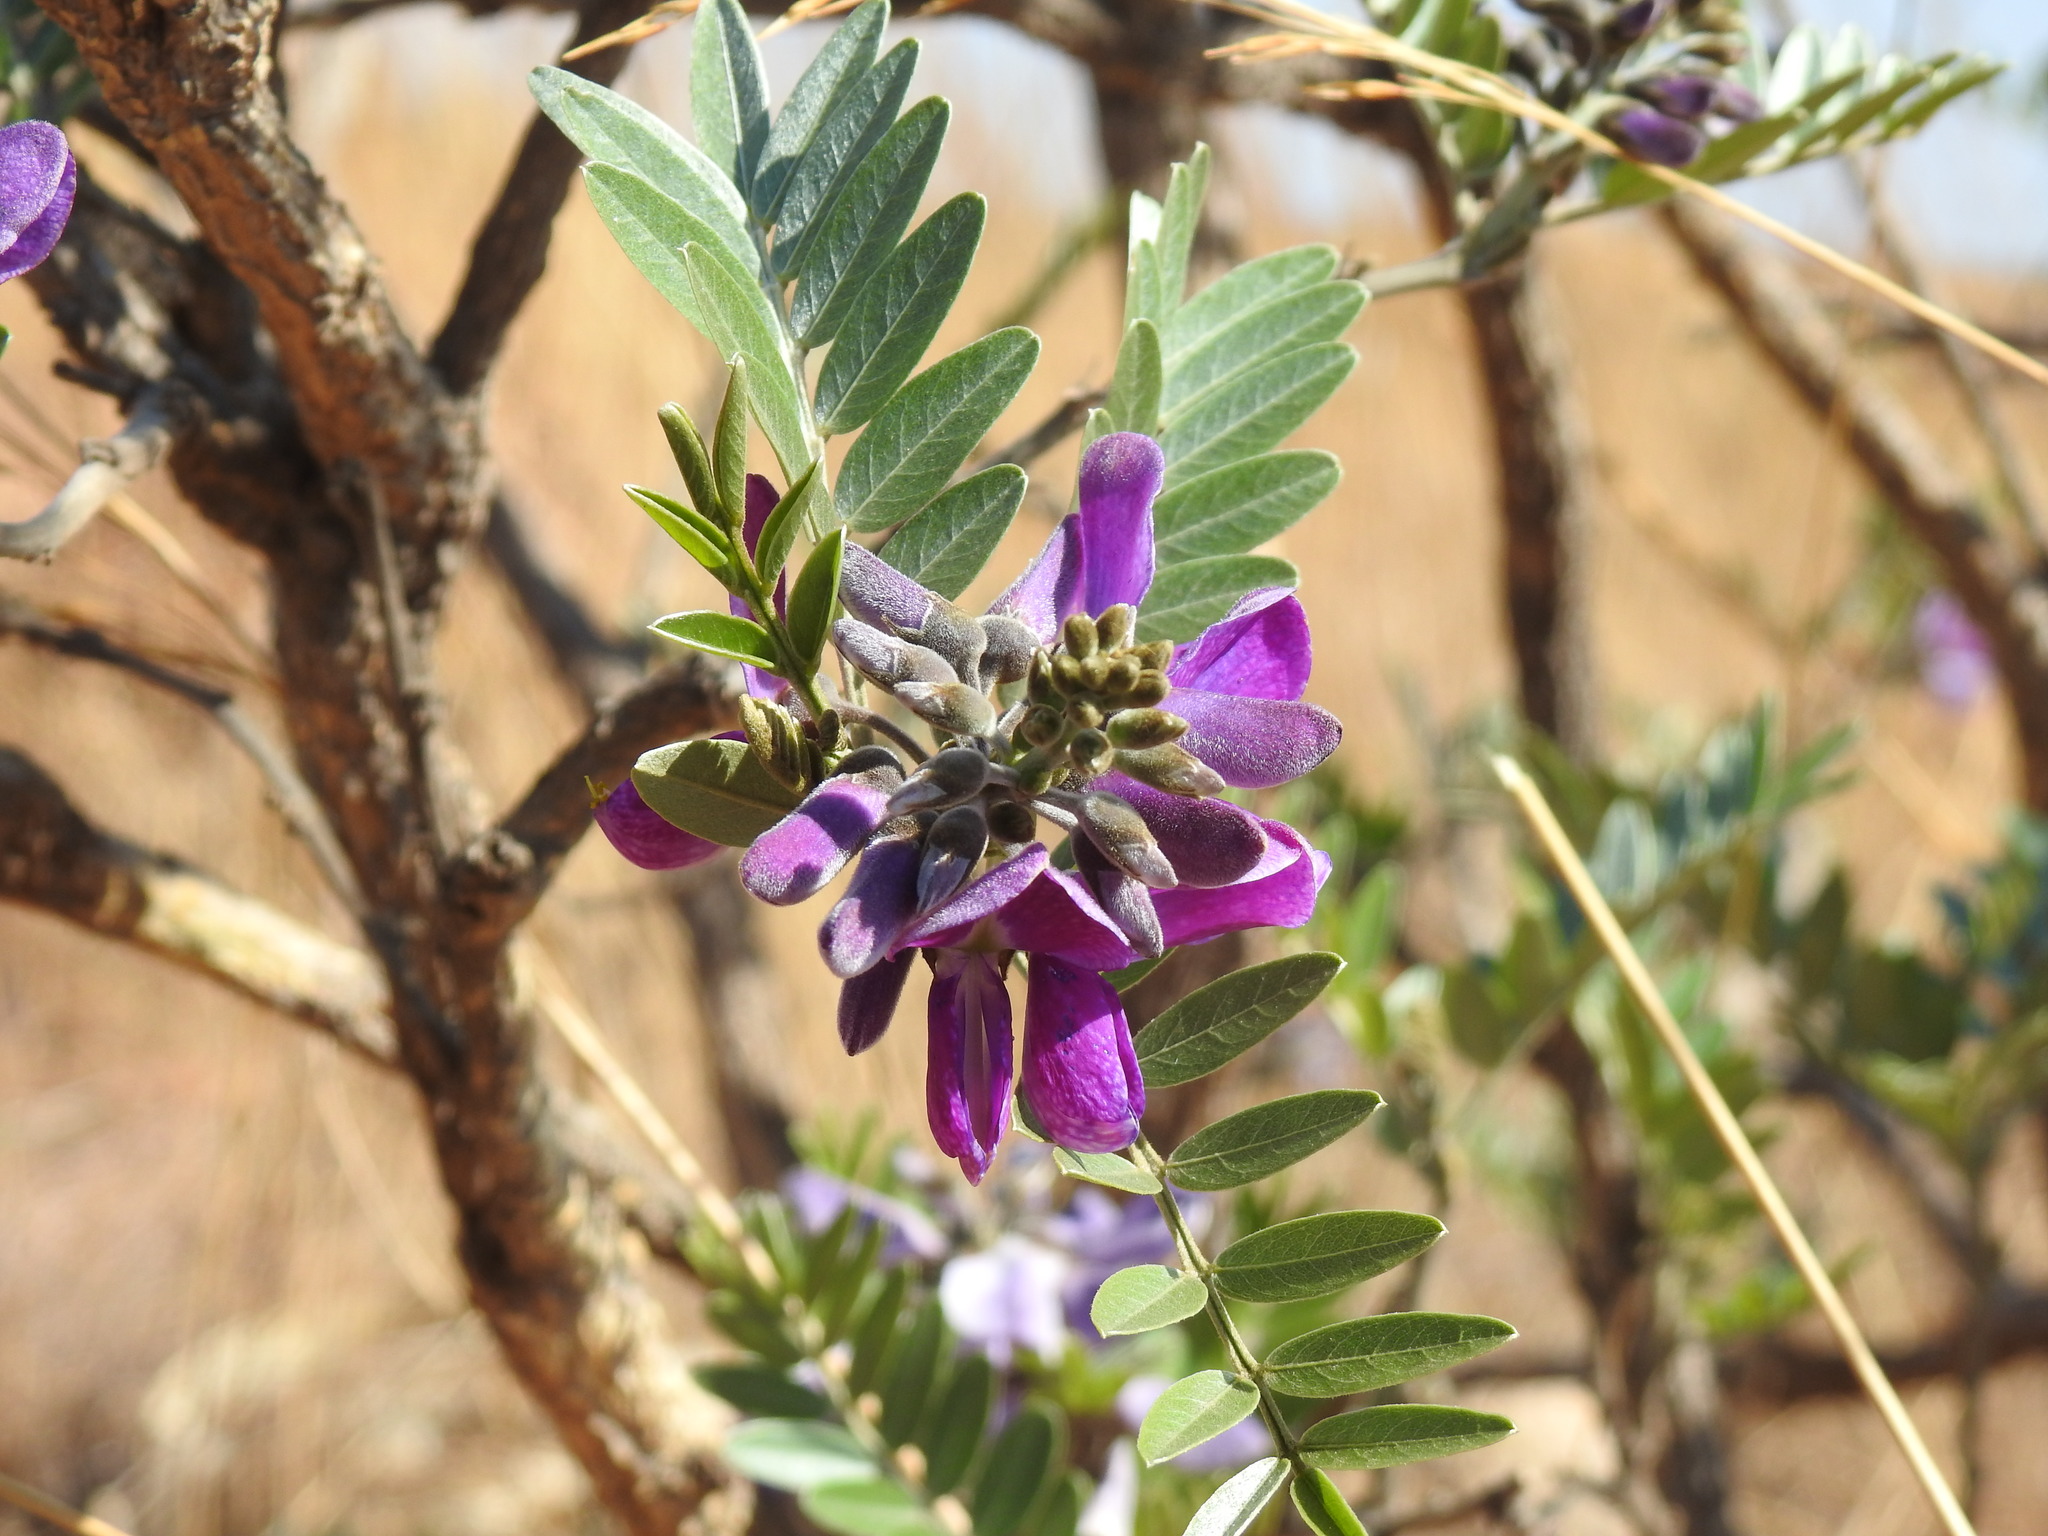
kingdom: Plantae
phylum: Tracheophyta
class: Magnoliopsida
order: Fabales
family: Fabaceae
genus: Mundulea
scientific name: Mundulea sericea
